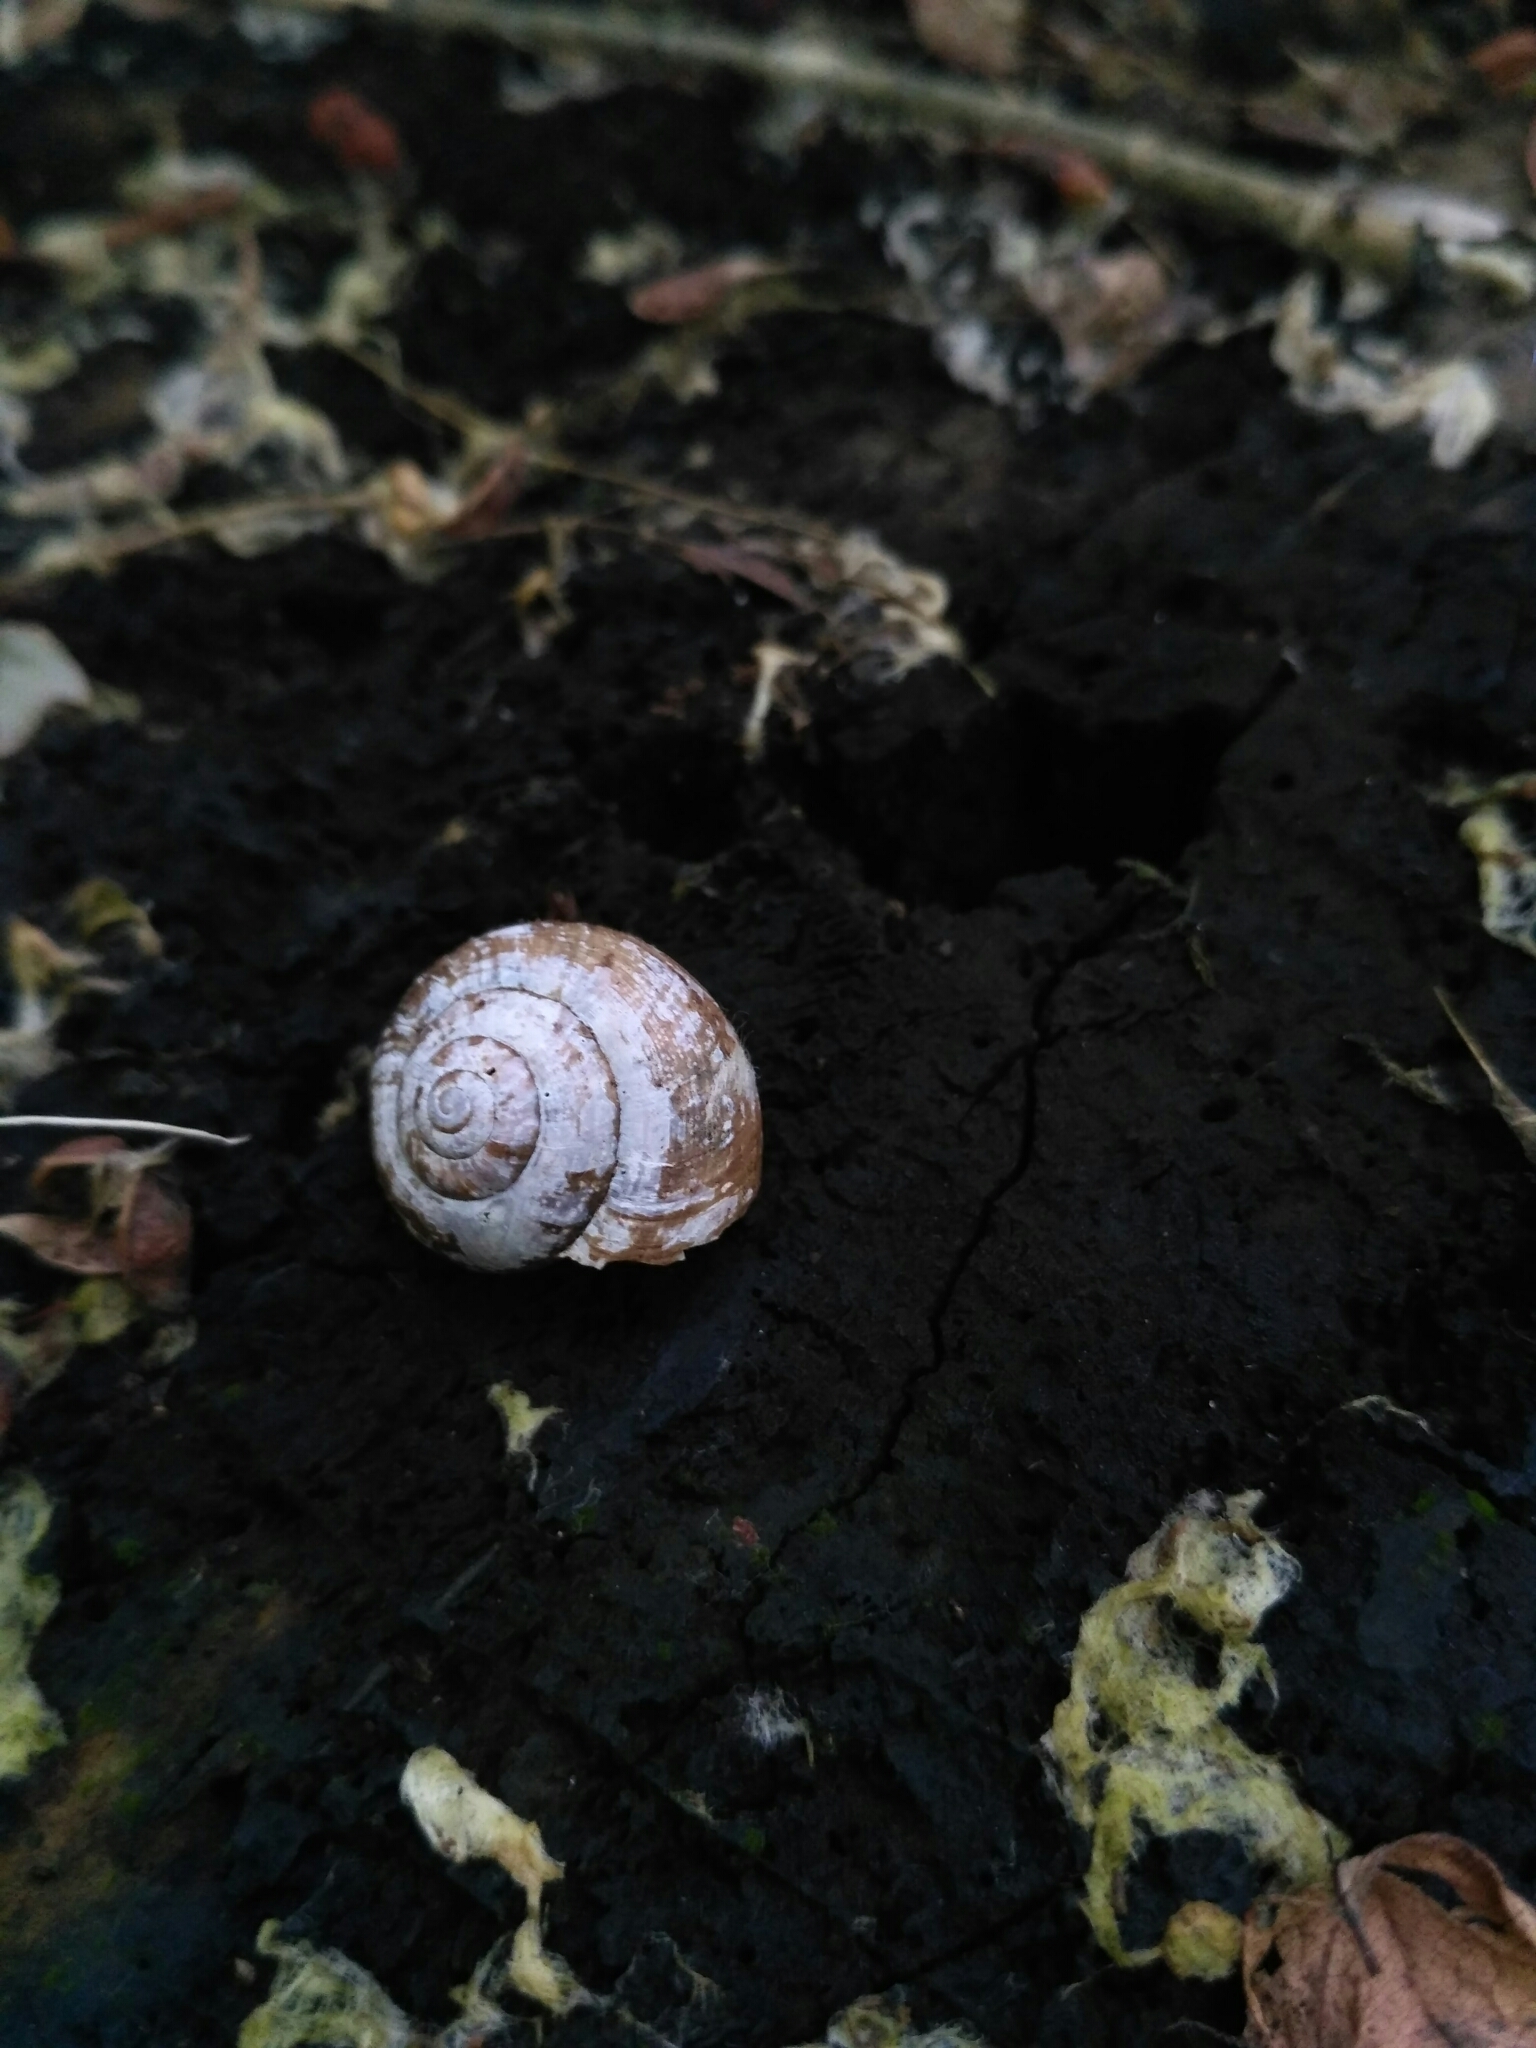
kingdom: Animalia
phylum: Mollusca
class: Gastropoda
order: Stylommatophora
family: Camaenidae
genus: Fruticicola
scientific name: Fruticicola fruticum
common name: Bush snail
